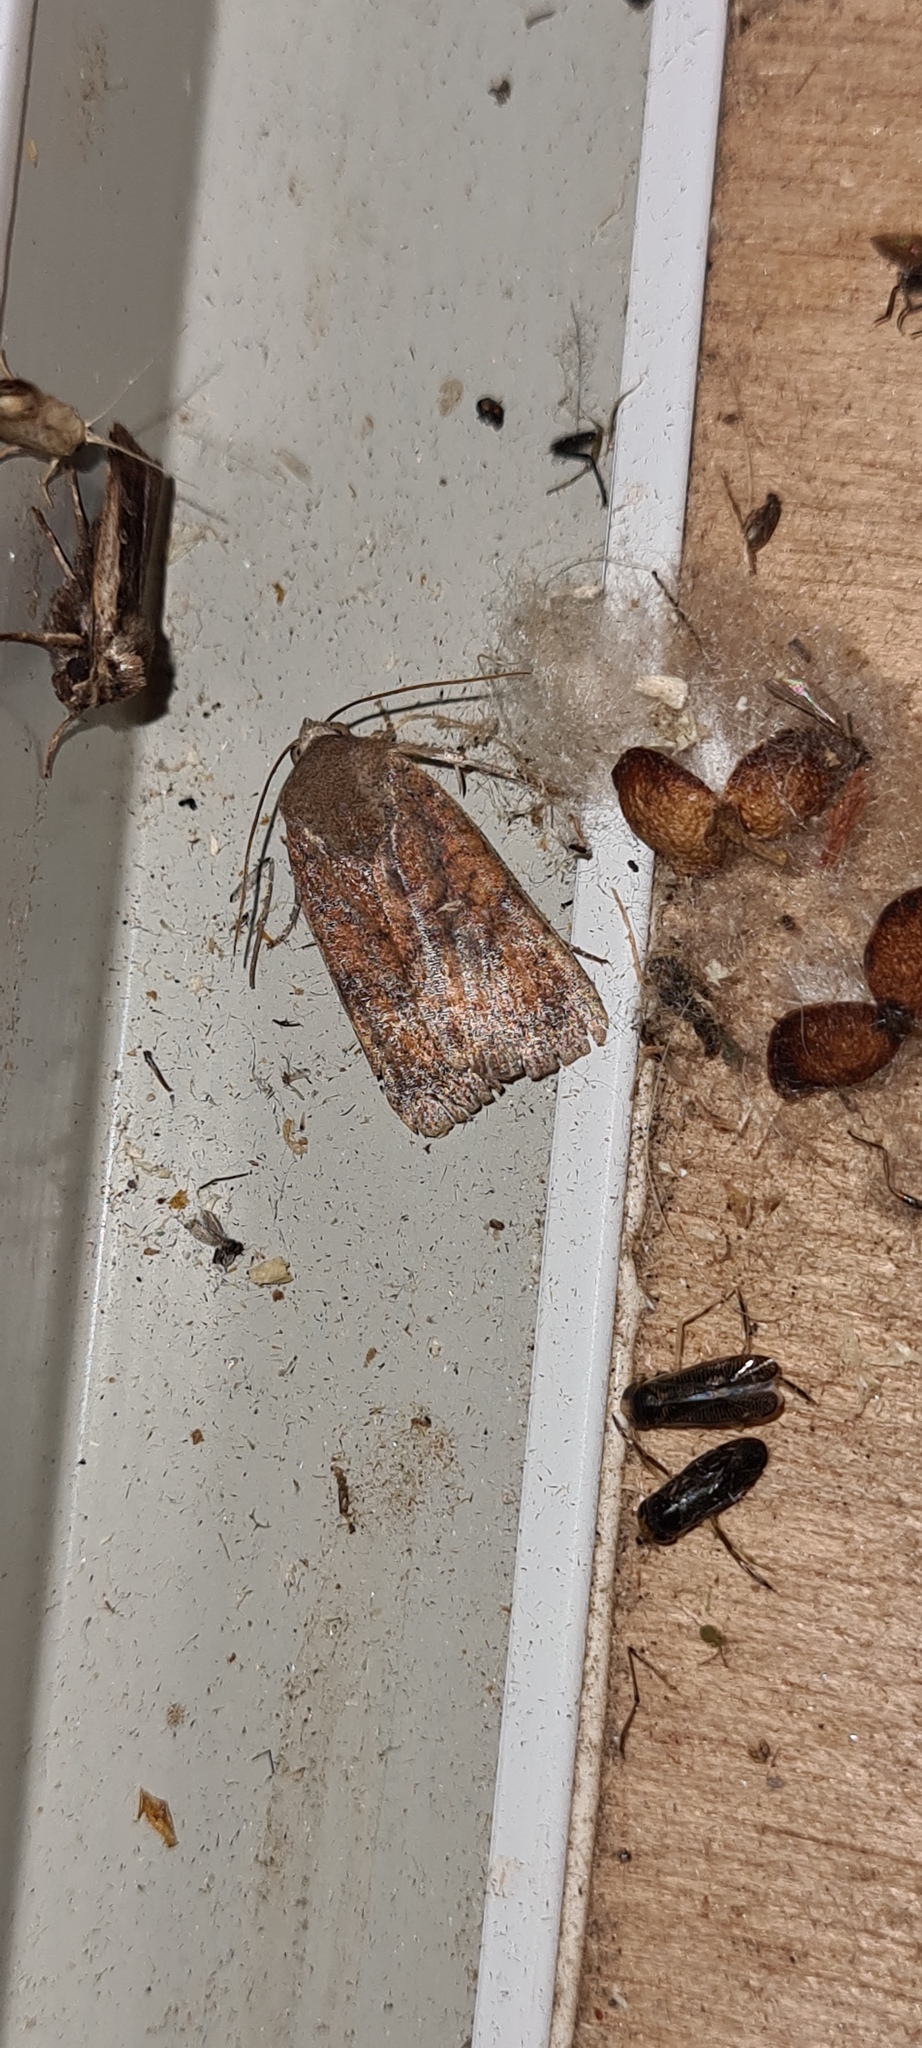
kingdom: Animalia
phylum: Arthropoda
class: Insecta
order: Lepidoptera
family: Noctuidae
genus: Noctua
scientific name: Noctua interjecta
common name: Least yellow underwing
